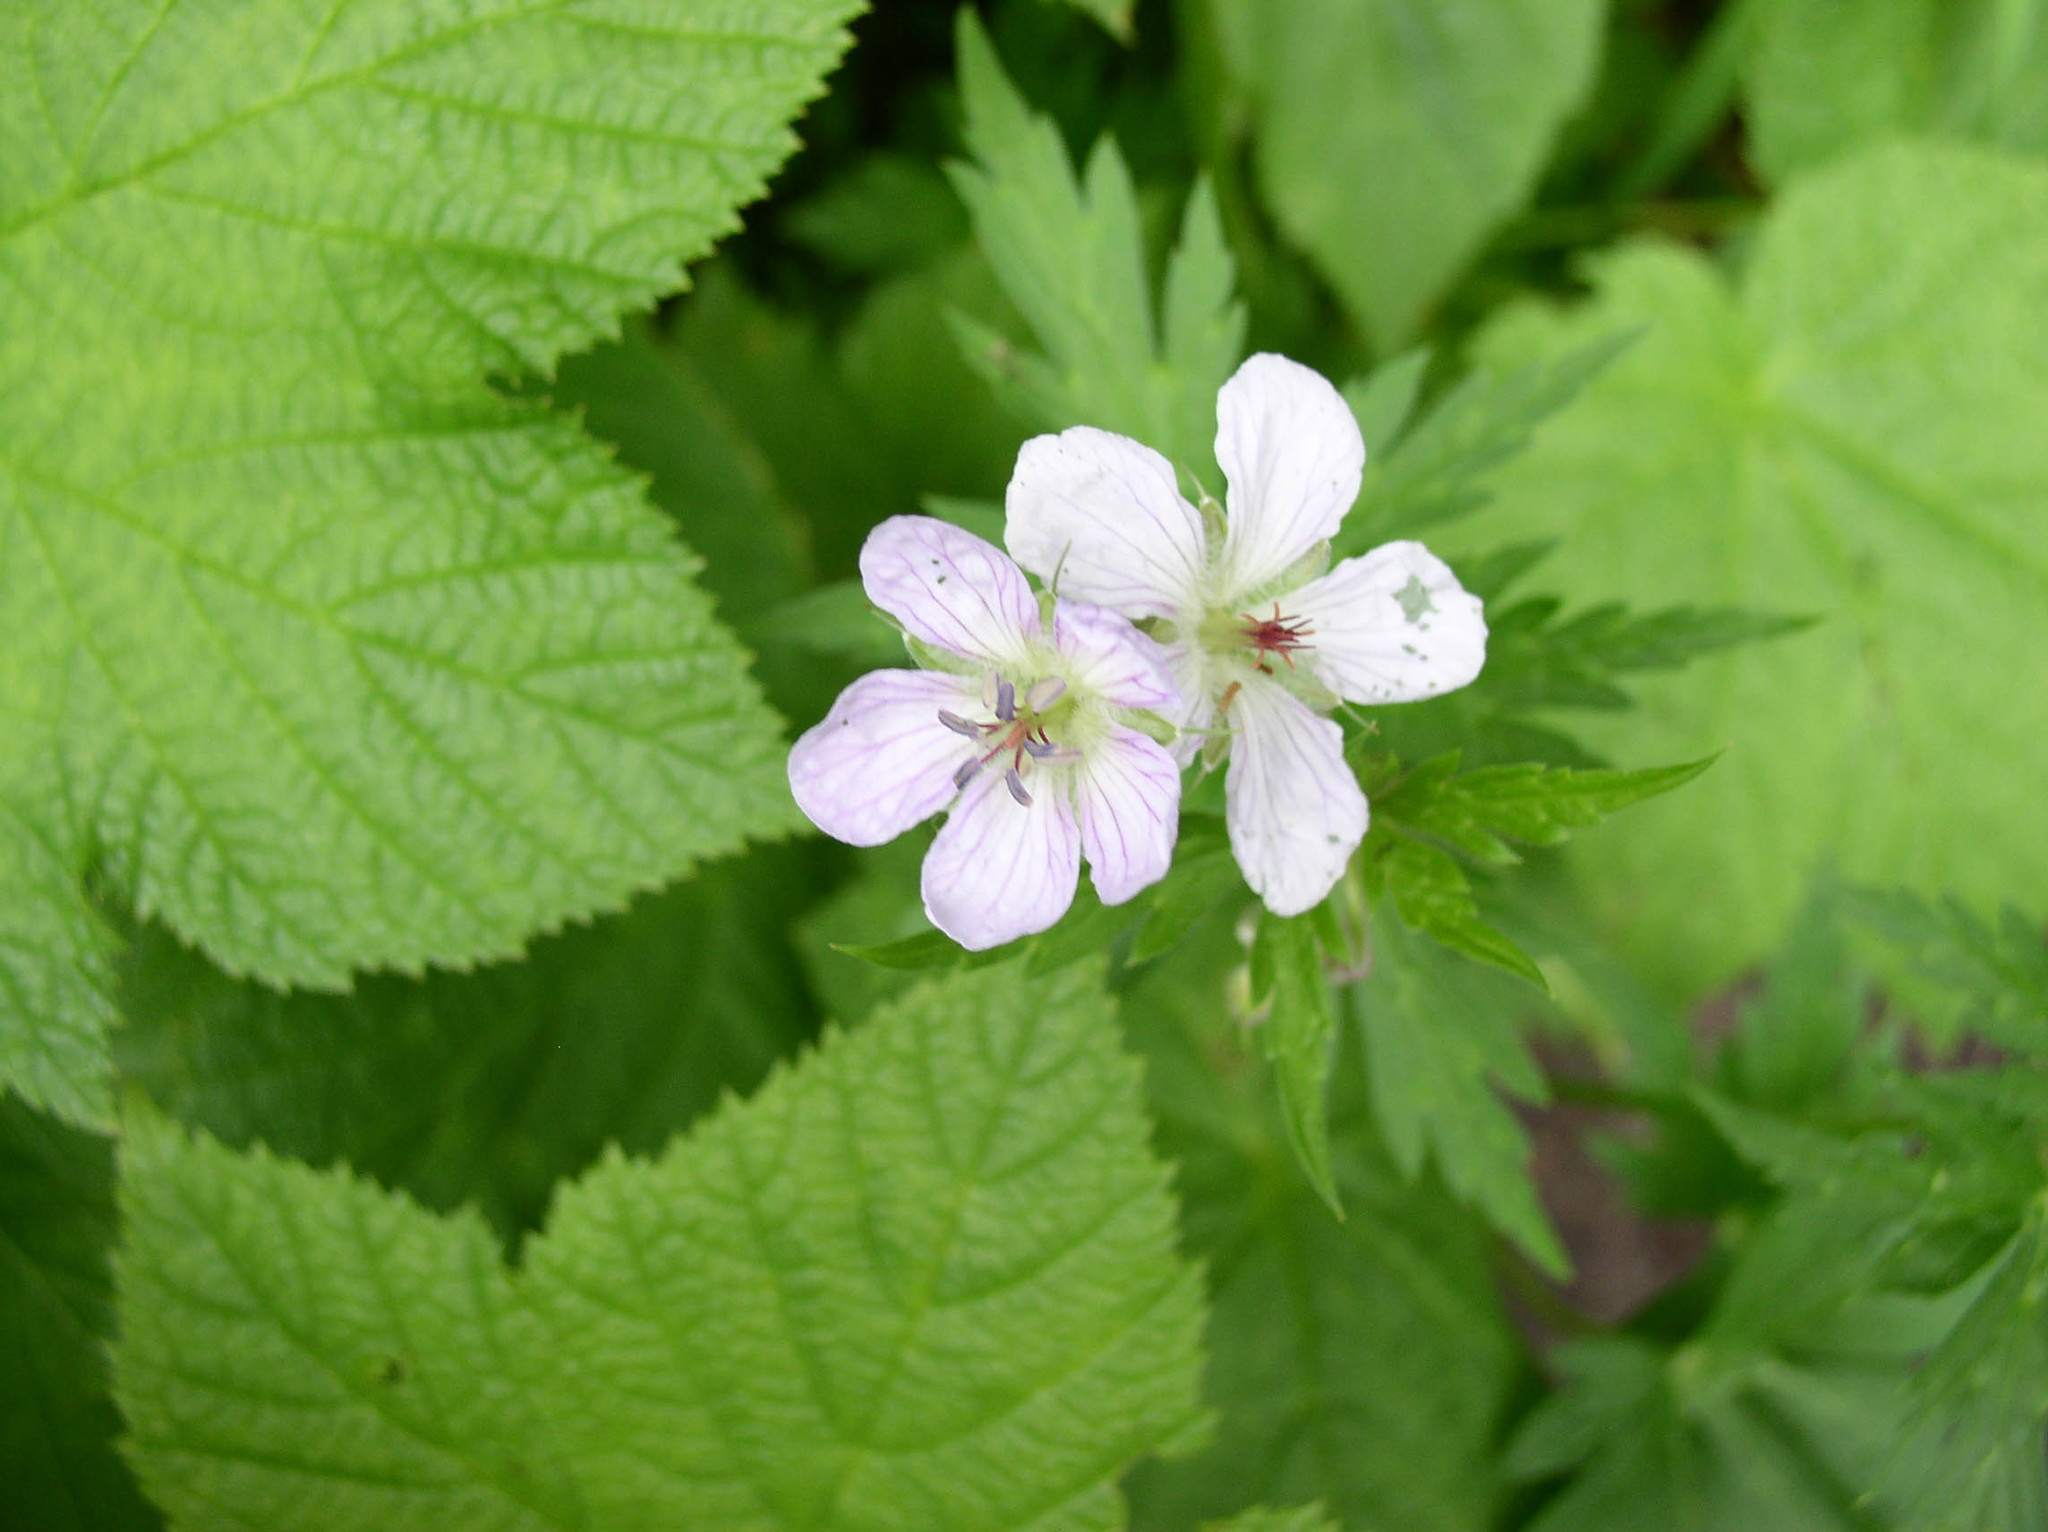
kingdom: Plantae
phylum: Tracheophyta
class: Magnoliopsida
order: Geraniales
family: Geraniaceae
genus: Geranium
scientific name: Geranium richardsonii
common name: Richardson's crane's-bill
